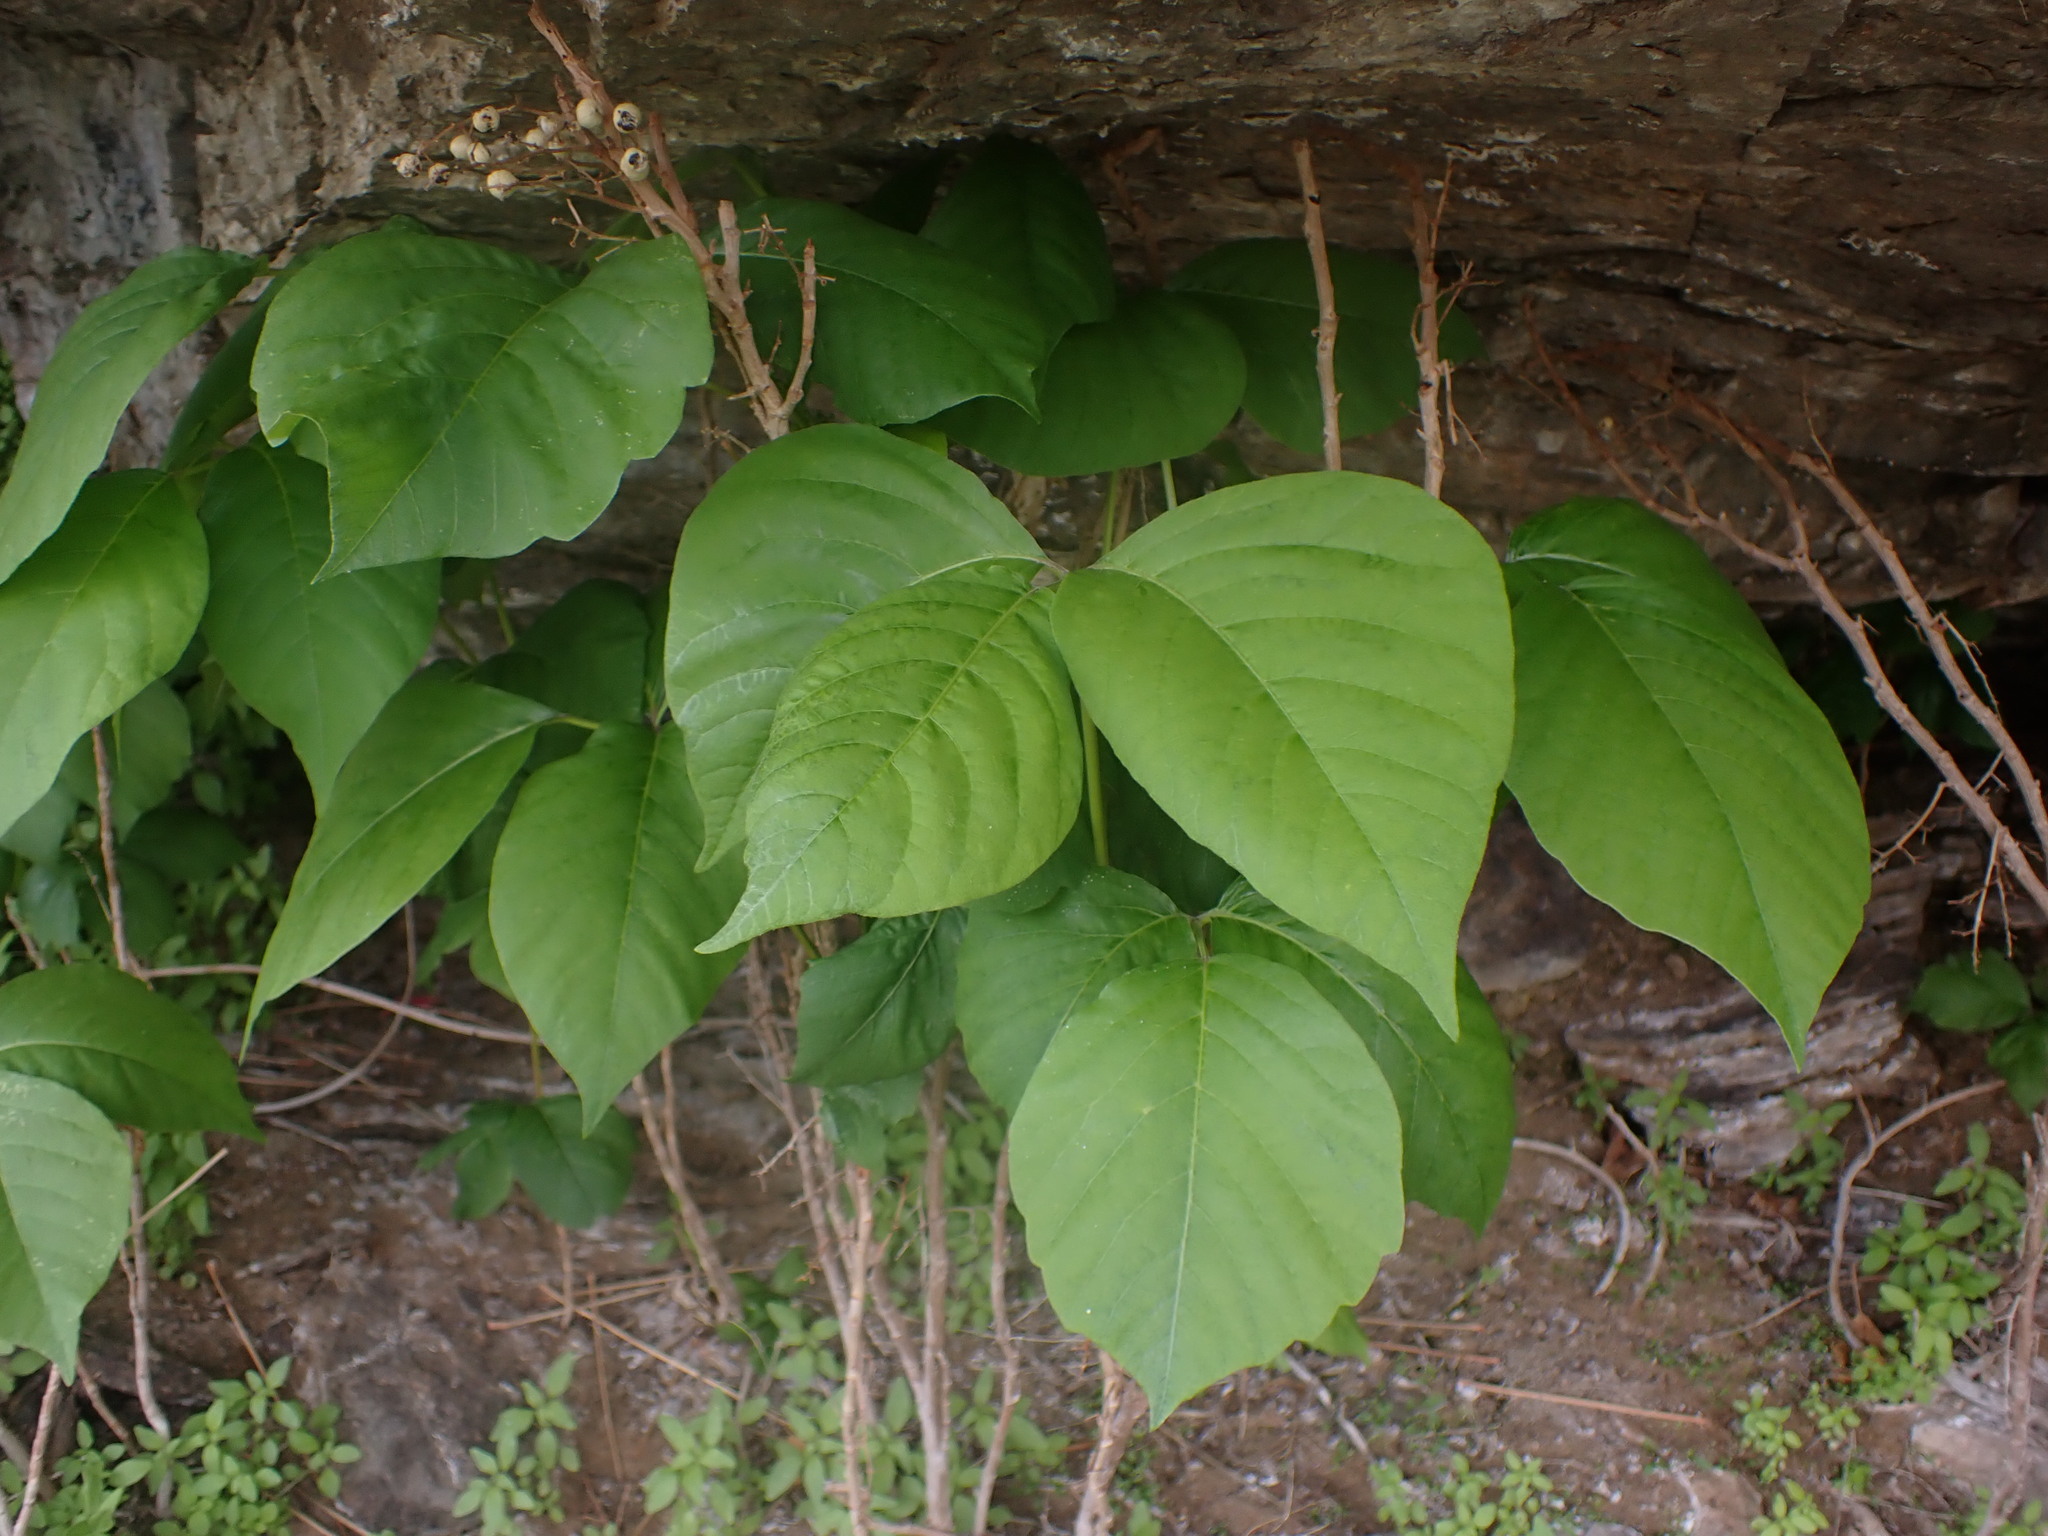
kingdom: Plantae
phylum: Tracheophyta
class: Magnoliopsida
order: Sapindales
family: Anacardiaceae
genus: Toxicodendron
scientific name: Toxicodendron rydbergii
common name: Rydberg's poison-ivy
